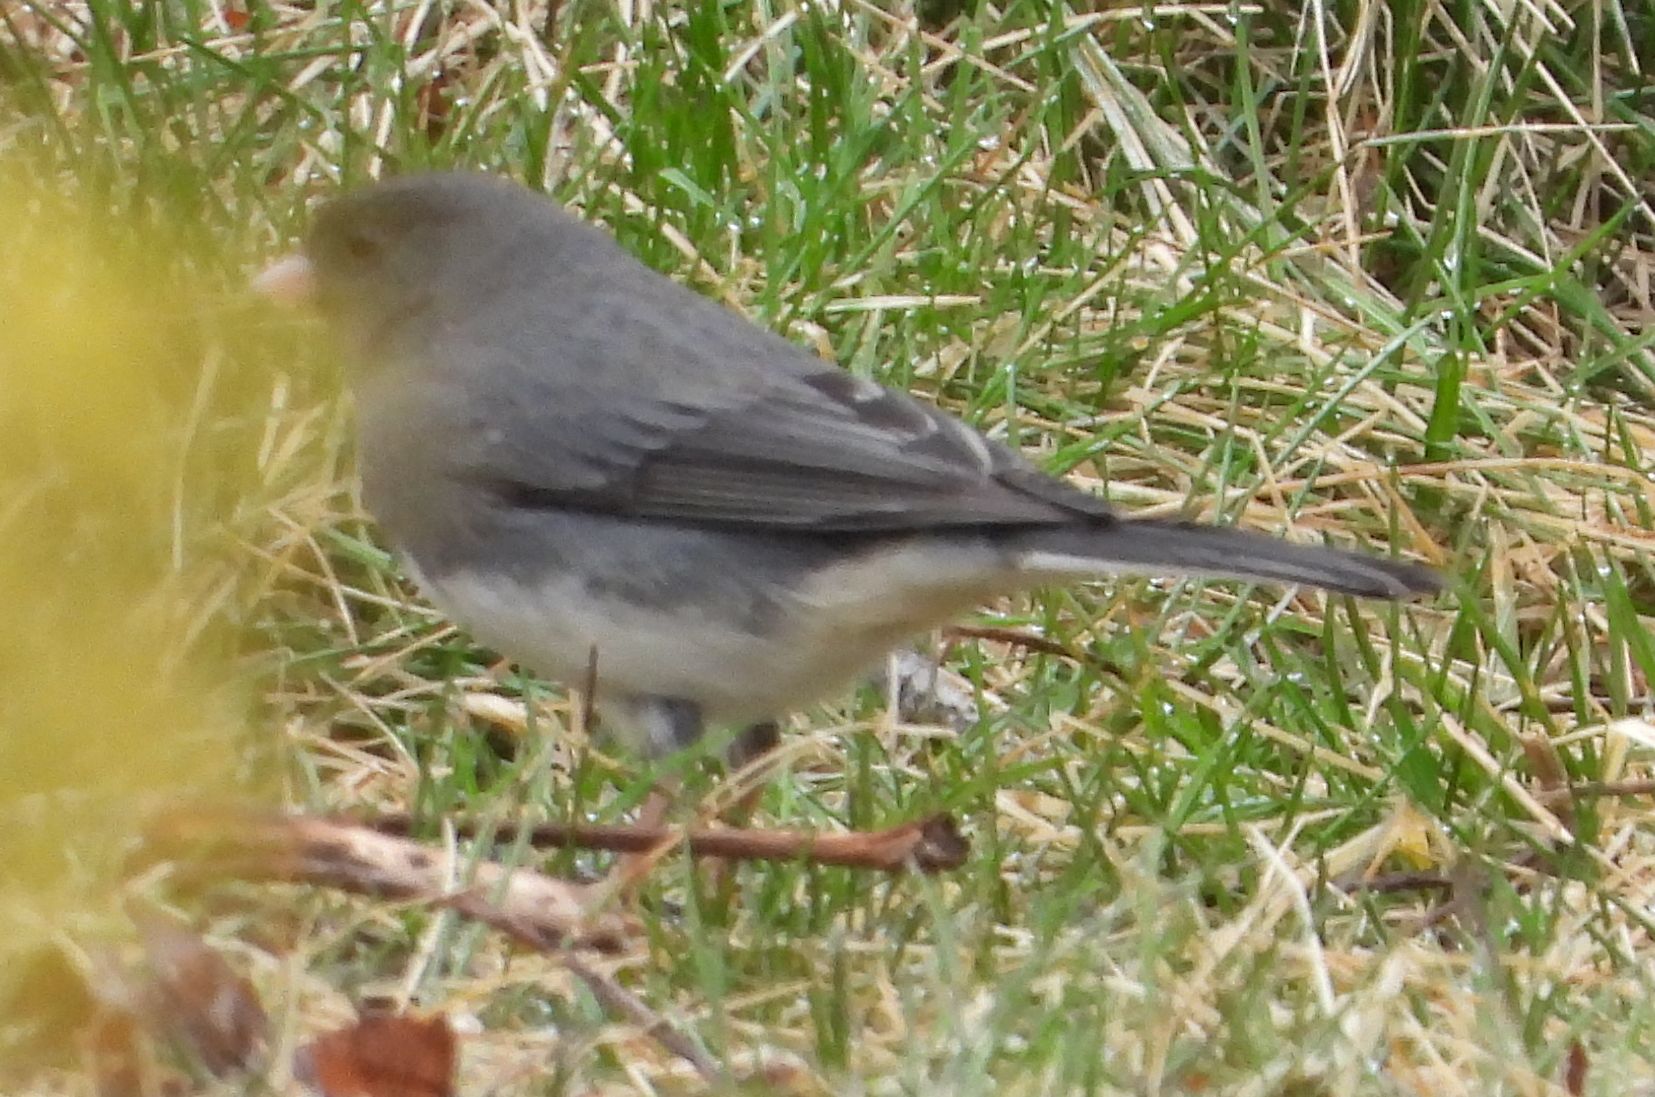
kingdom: Animalia
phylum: Chordata
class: Aves
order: Passeriformes
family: Passerellidae
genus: Junco
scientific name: Junco hyemalis
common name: Dark-eyed junco
